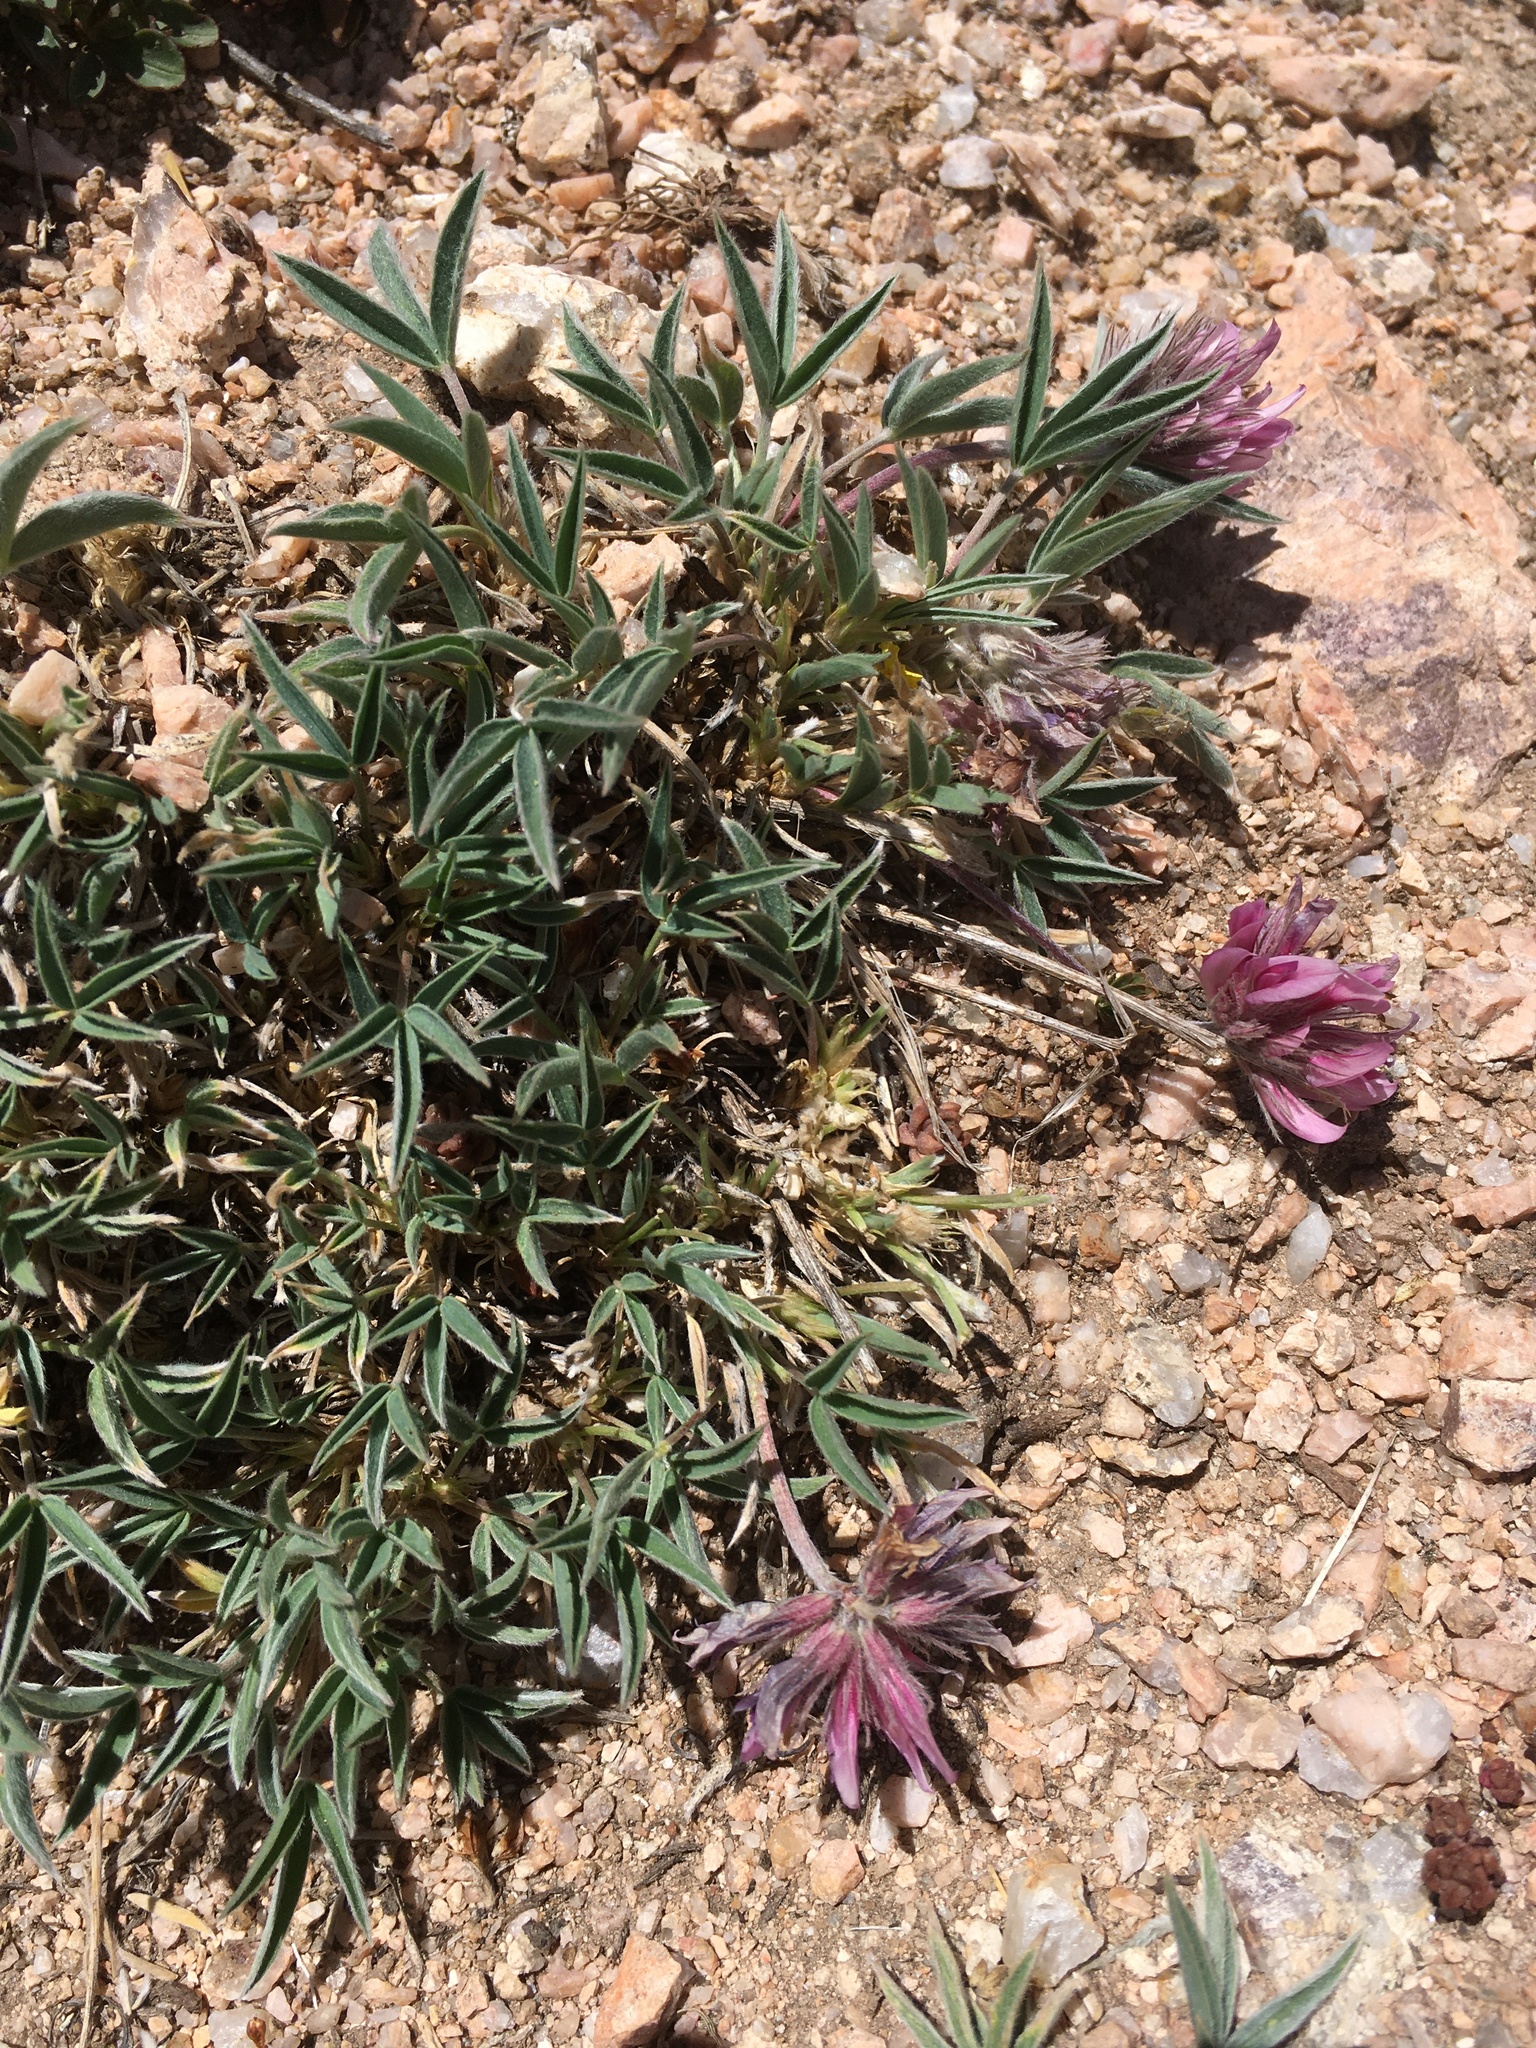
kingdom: Plantae
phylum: Tracheophyta
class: Magnoliopsida
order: Fabales
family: Fabaceae
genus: Trifolium
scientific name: Trifolium attenuatum
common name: Rocky mountain clover
